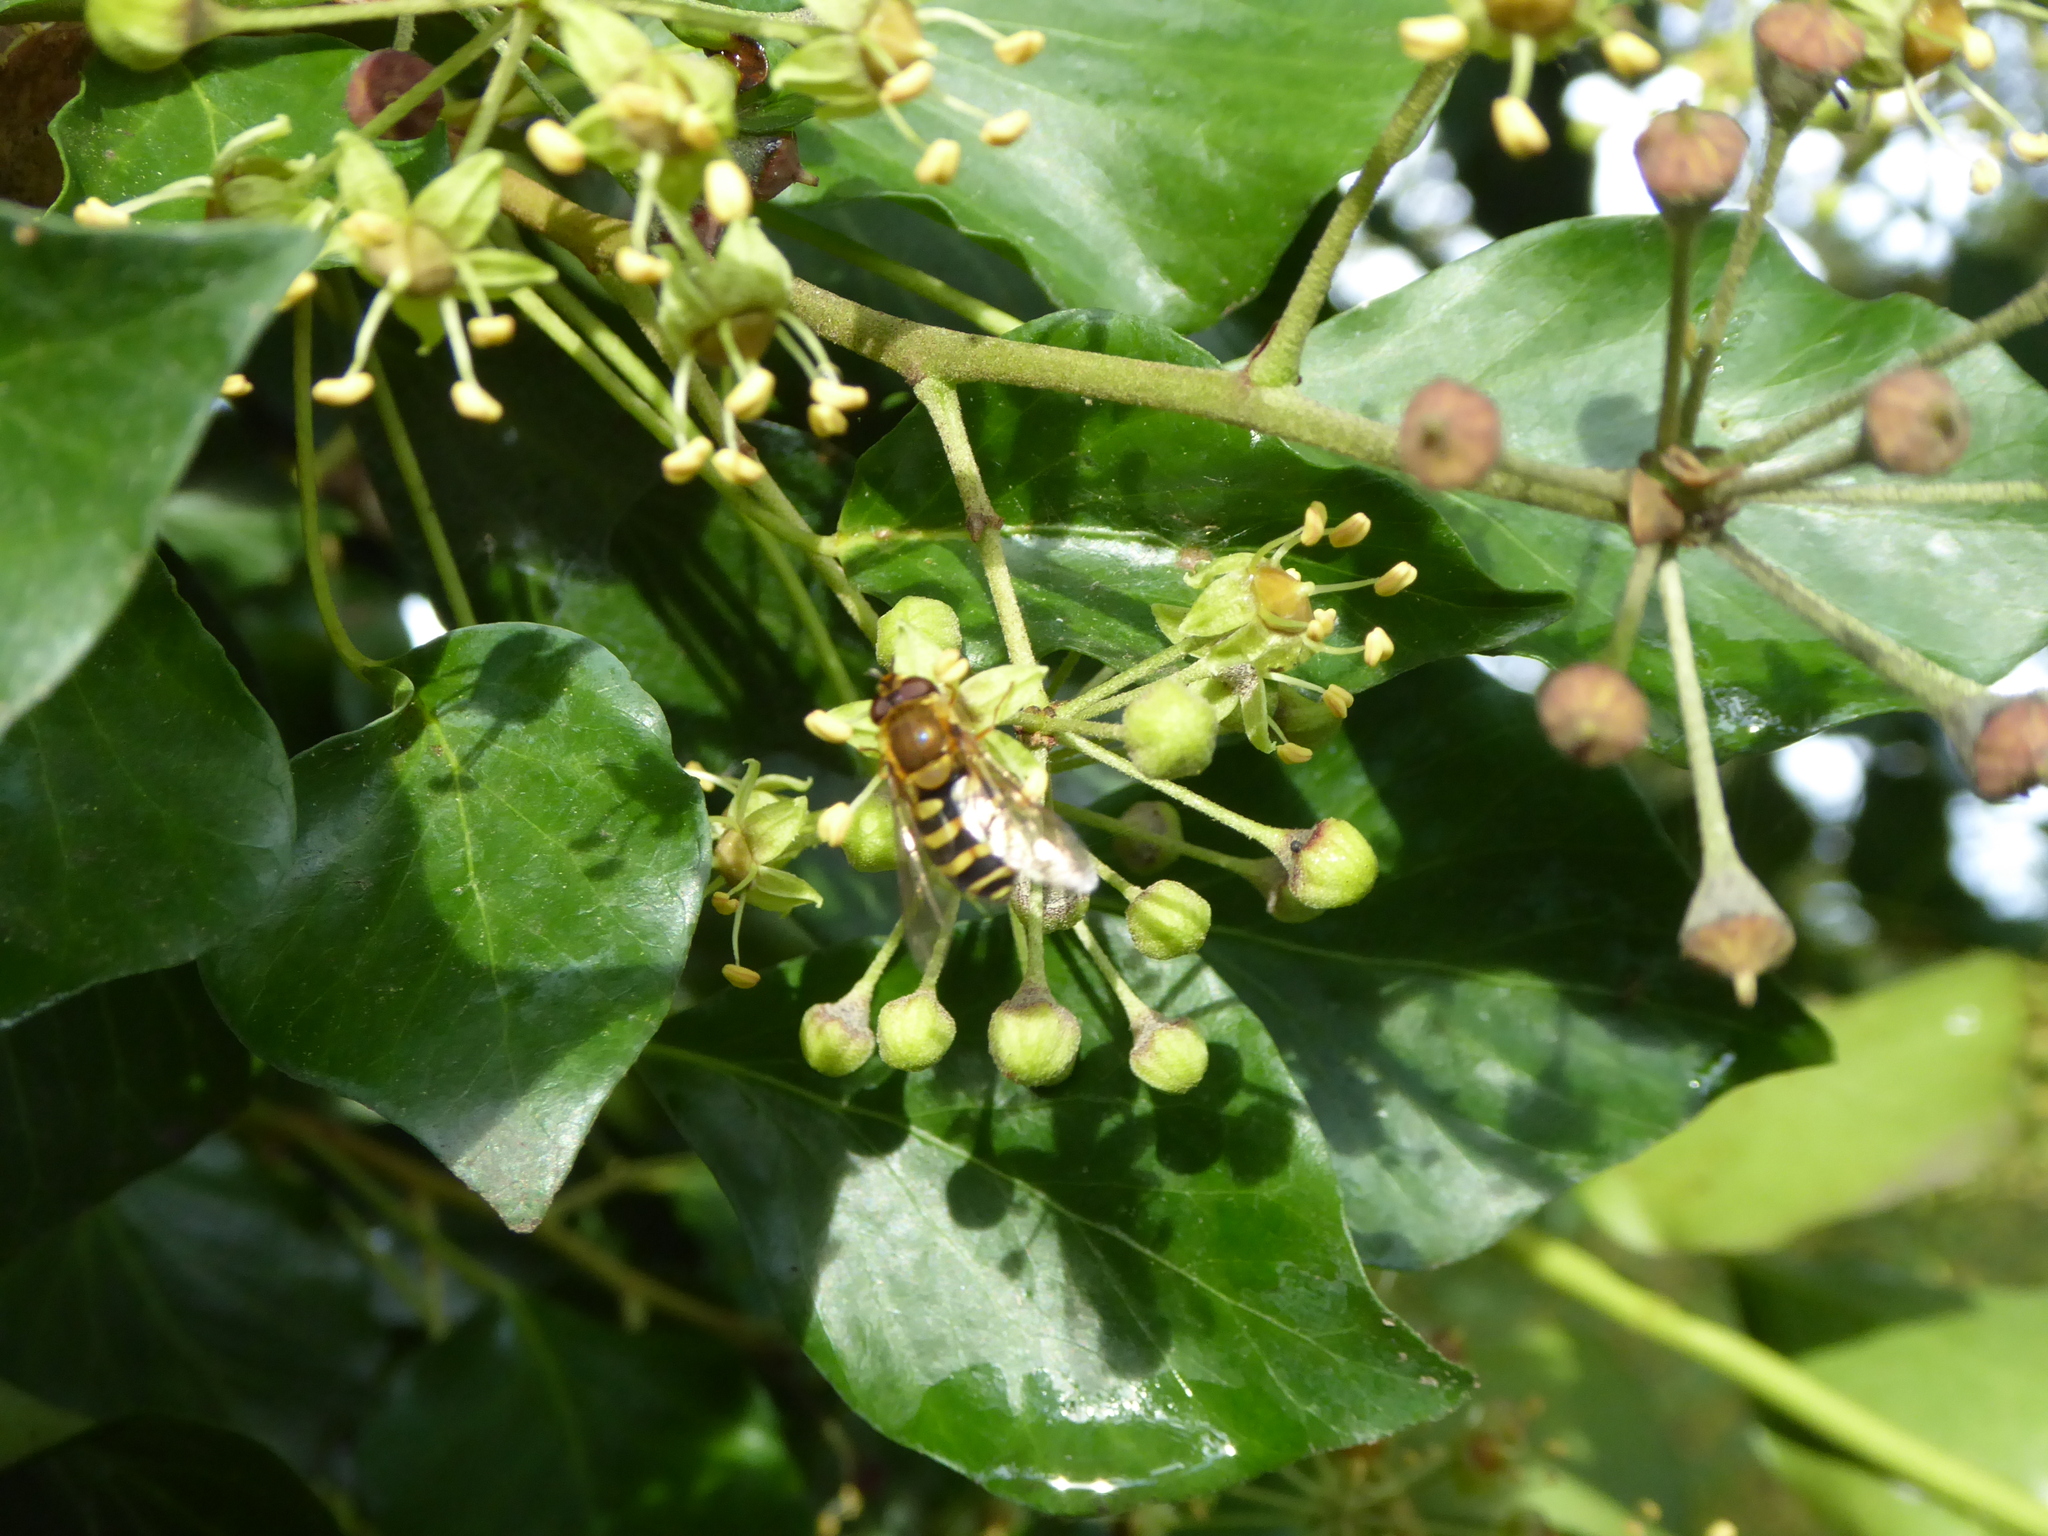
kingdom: Animalia
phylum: Arthropoda
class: Insecta
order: Diptera
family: Syrphidae
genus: Syrphus
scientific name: Syrphus
